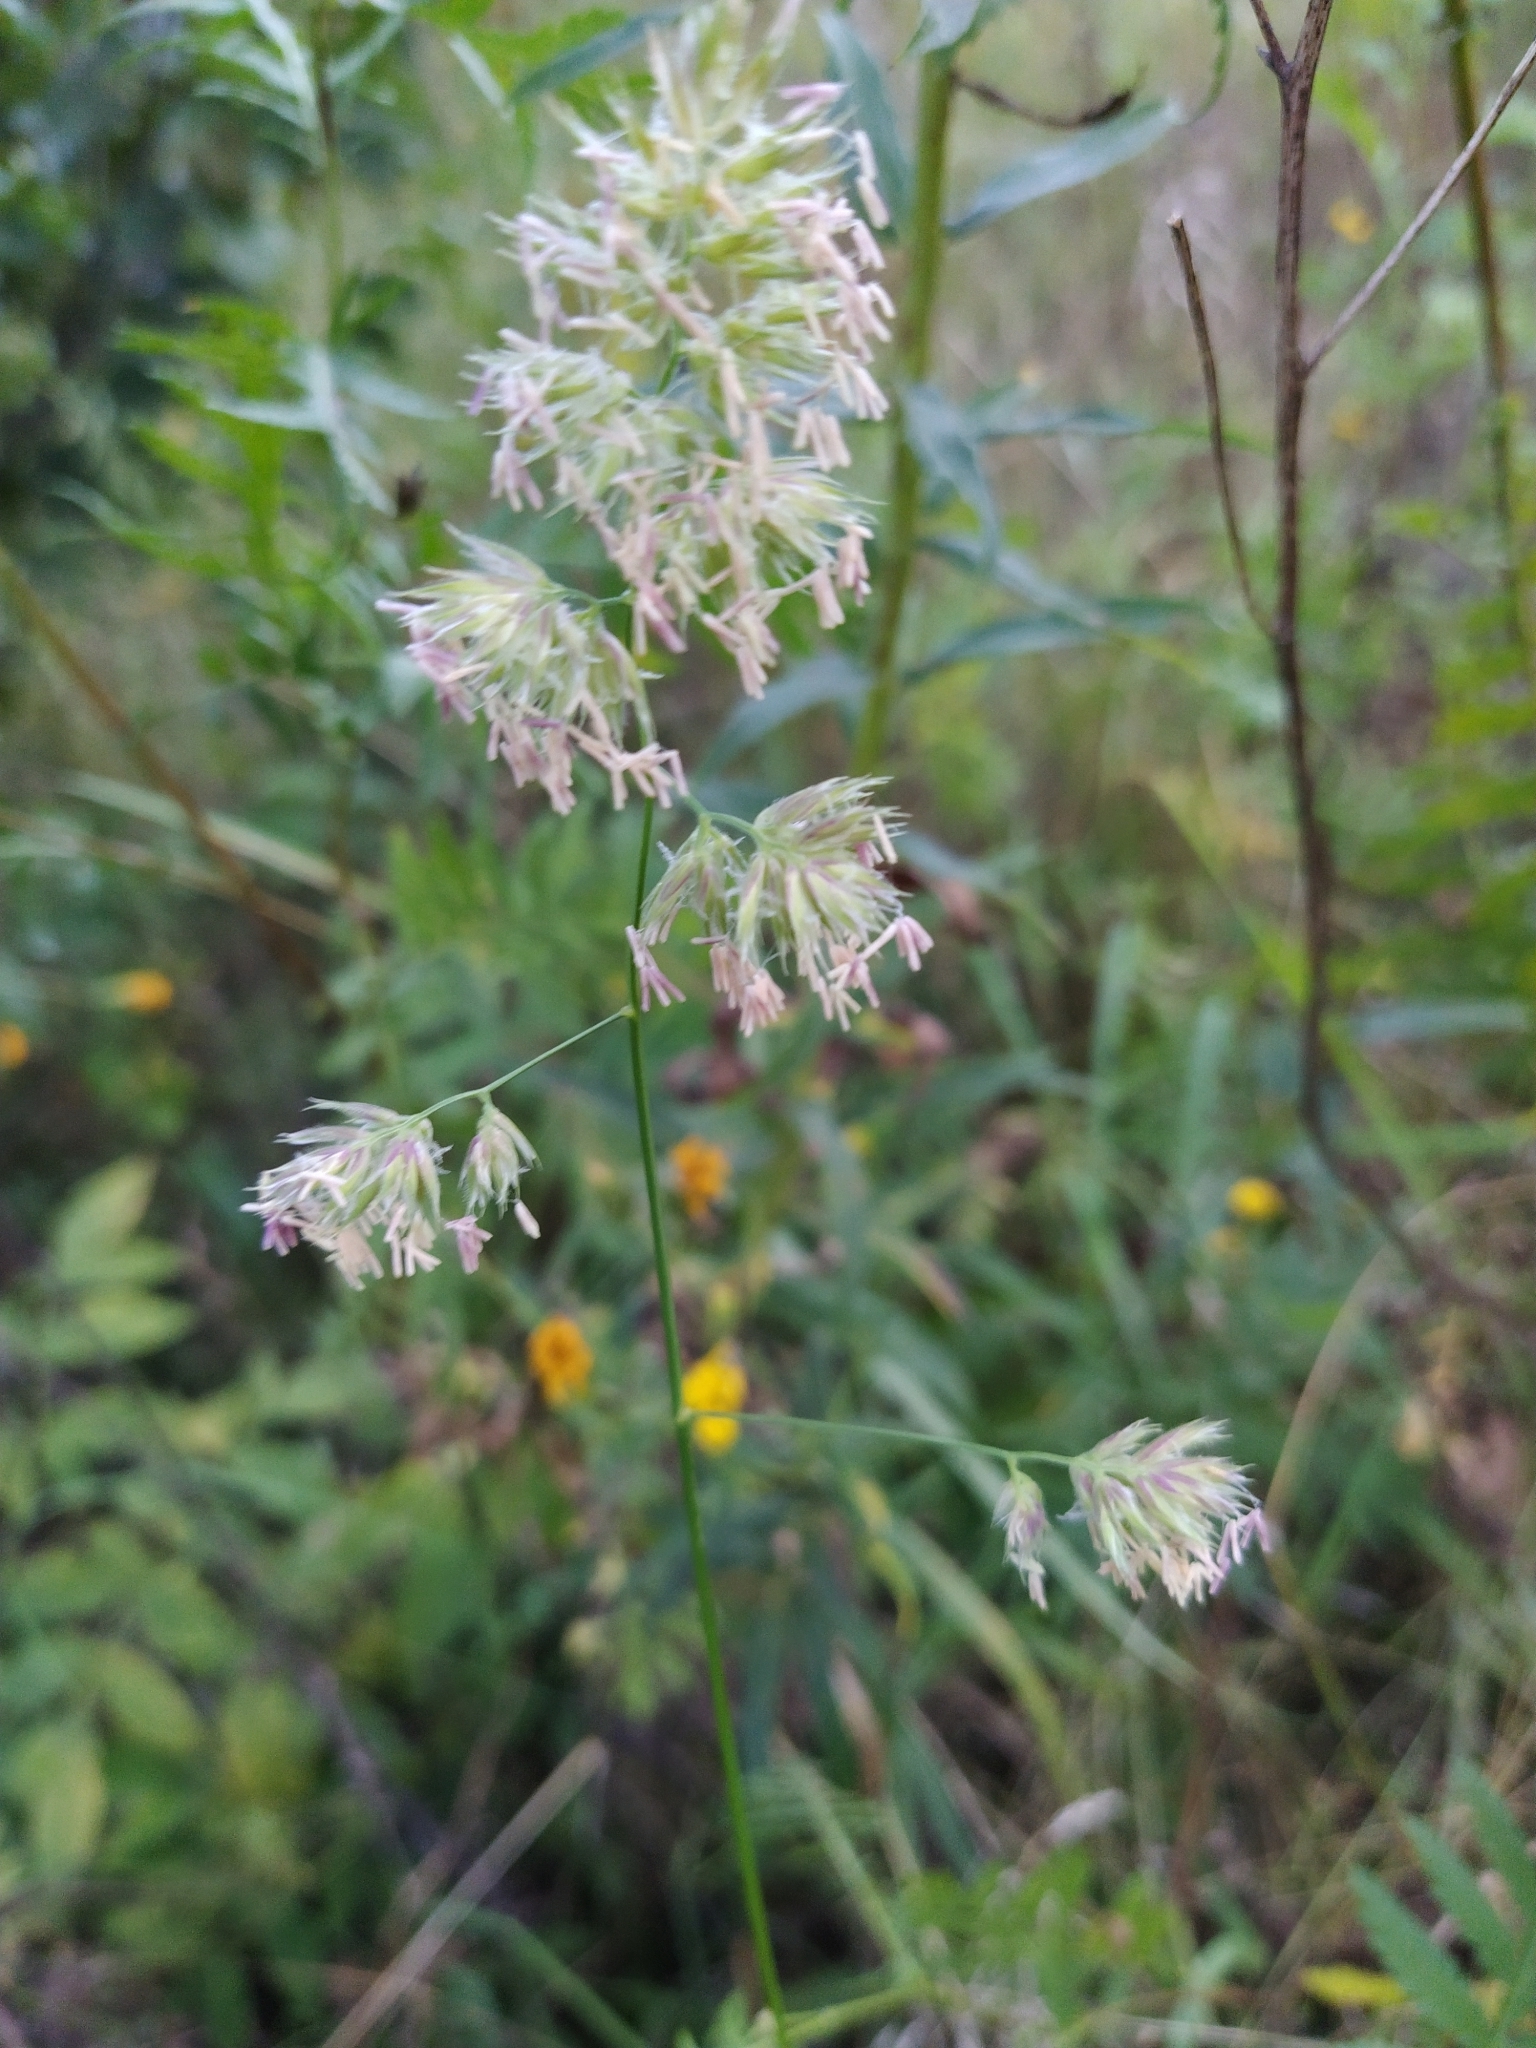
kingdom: Plantae
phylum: Tracheophyta
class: Liliopsida
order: Poales
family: Poaceae
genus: Dactylis
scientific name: Dactylis glomerata
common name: Orchardgrass
